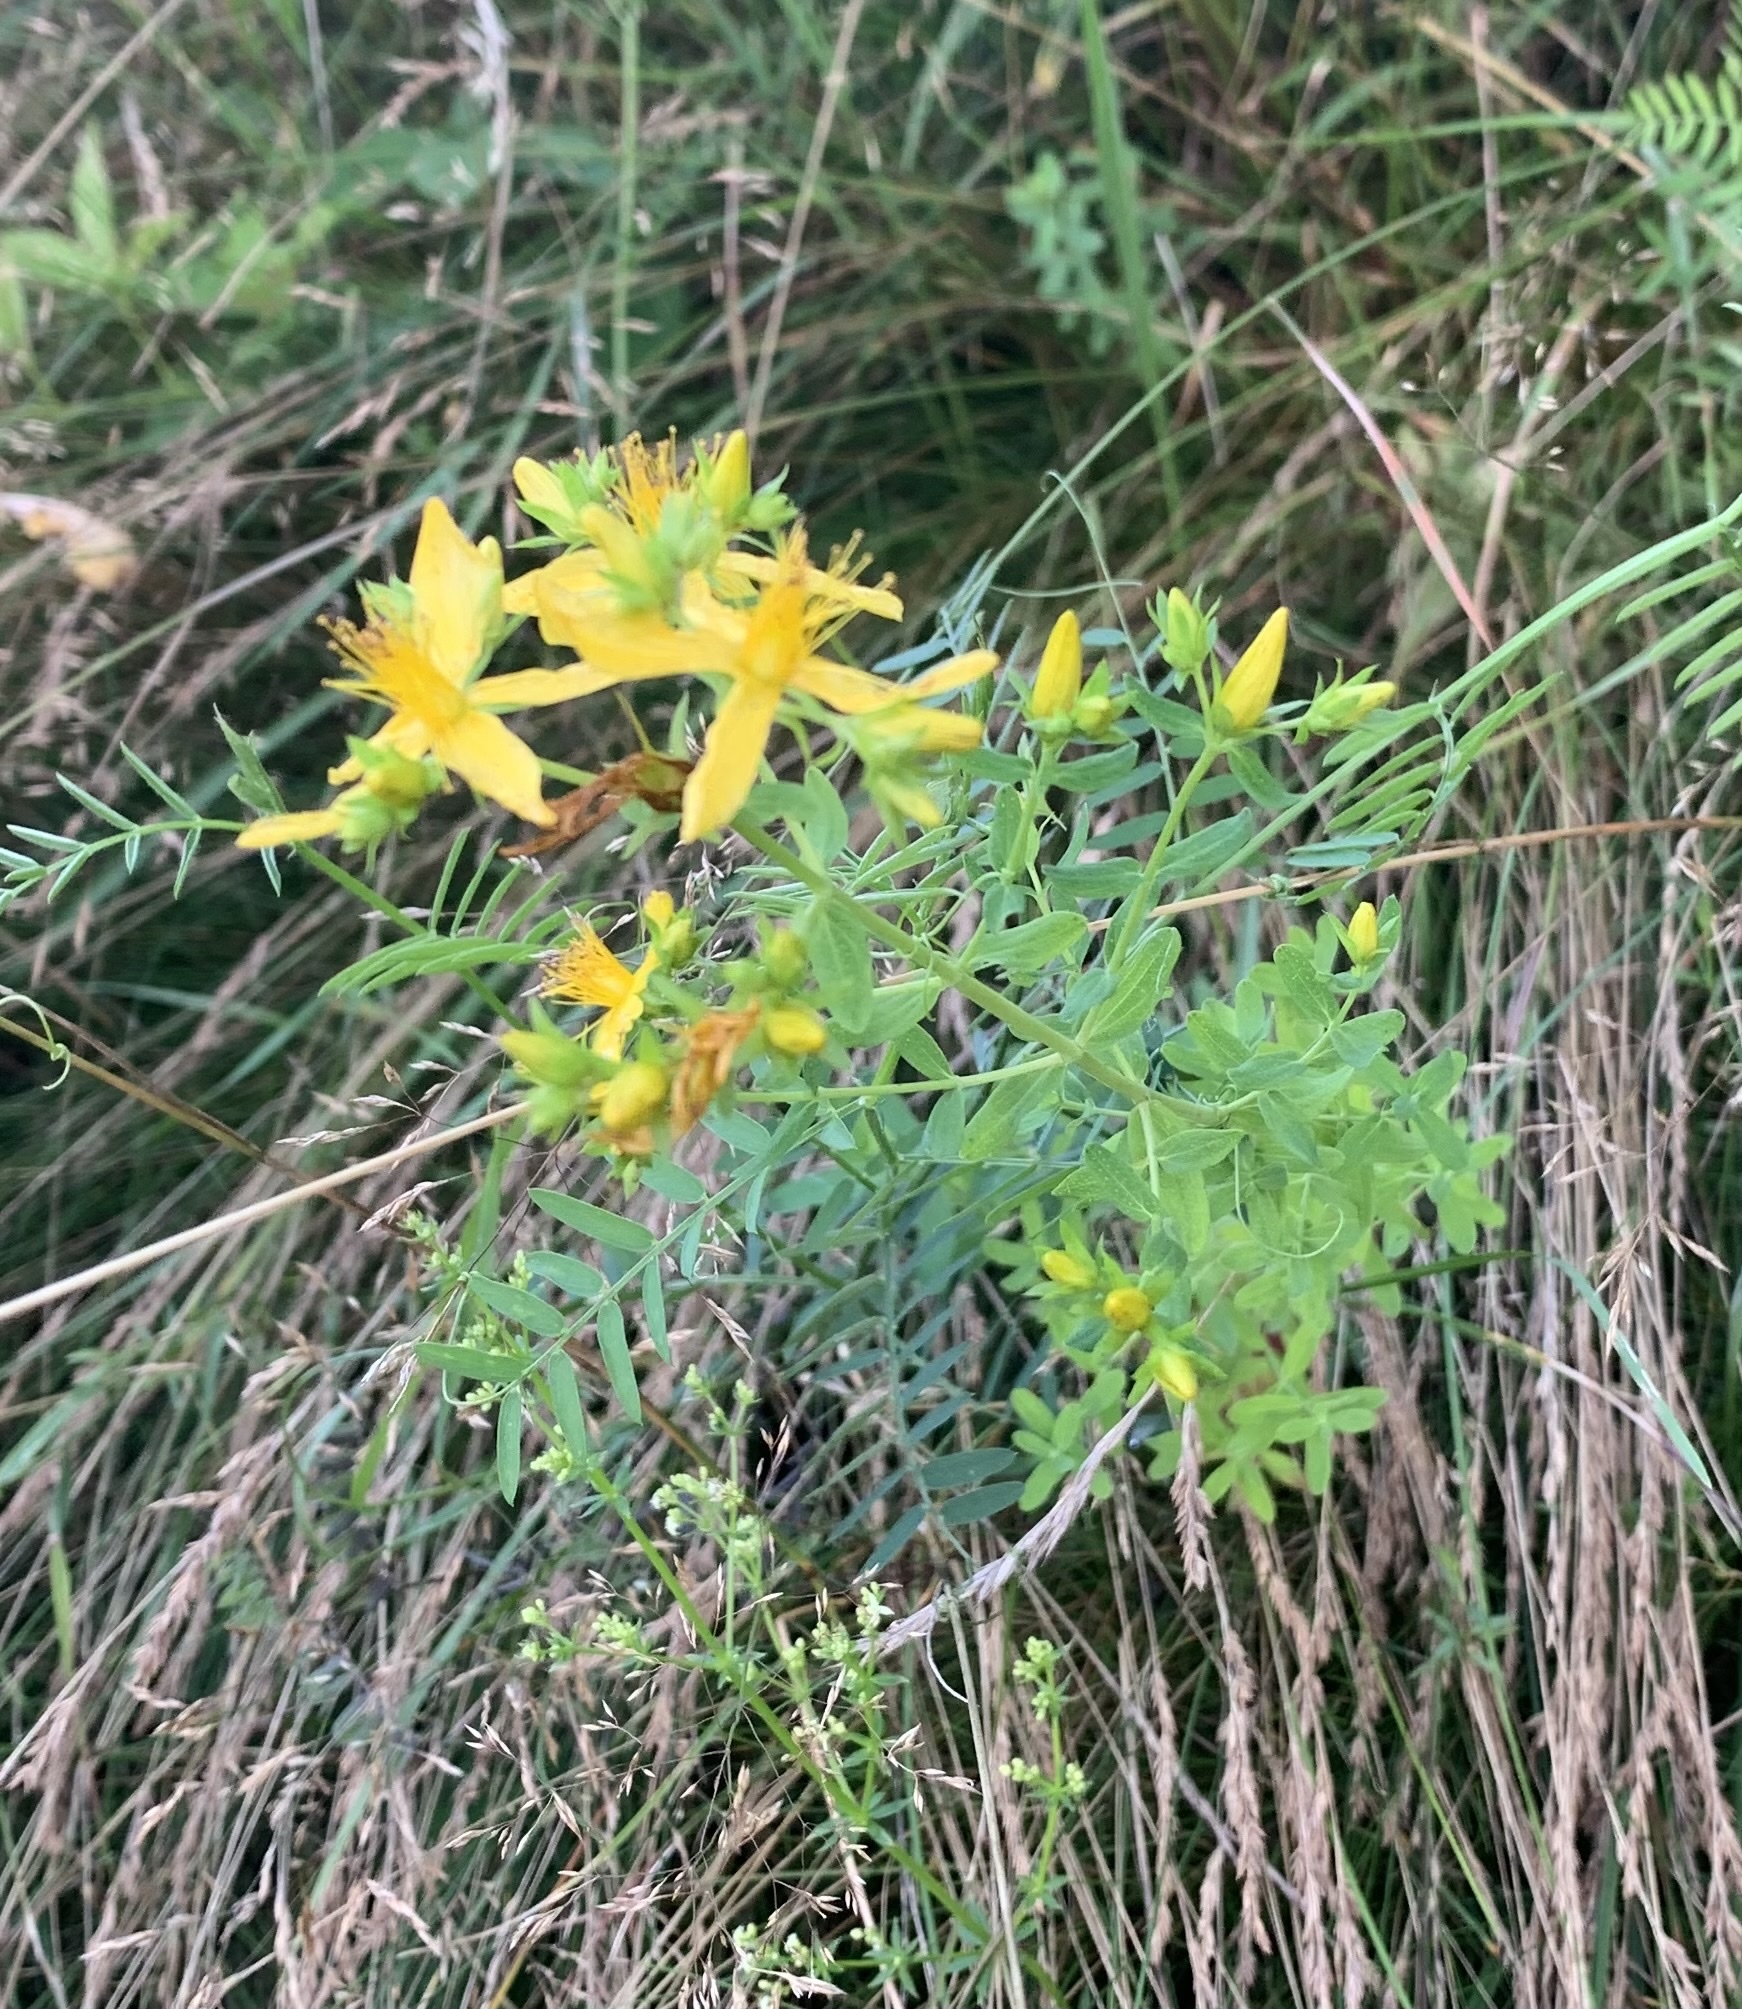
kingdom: Plantae
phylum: Tracheophyta
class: Magnoliopsida
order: Malpighiales
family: Hypericaceae
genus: Hypericum
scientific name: Hypericum perforatum
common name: Common st. johnswort
